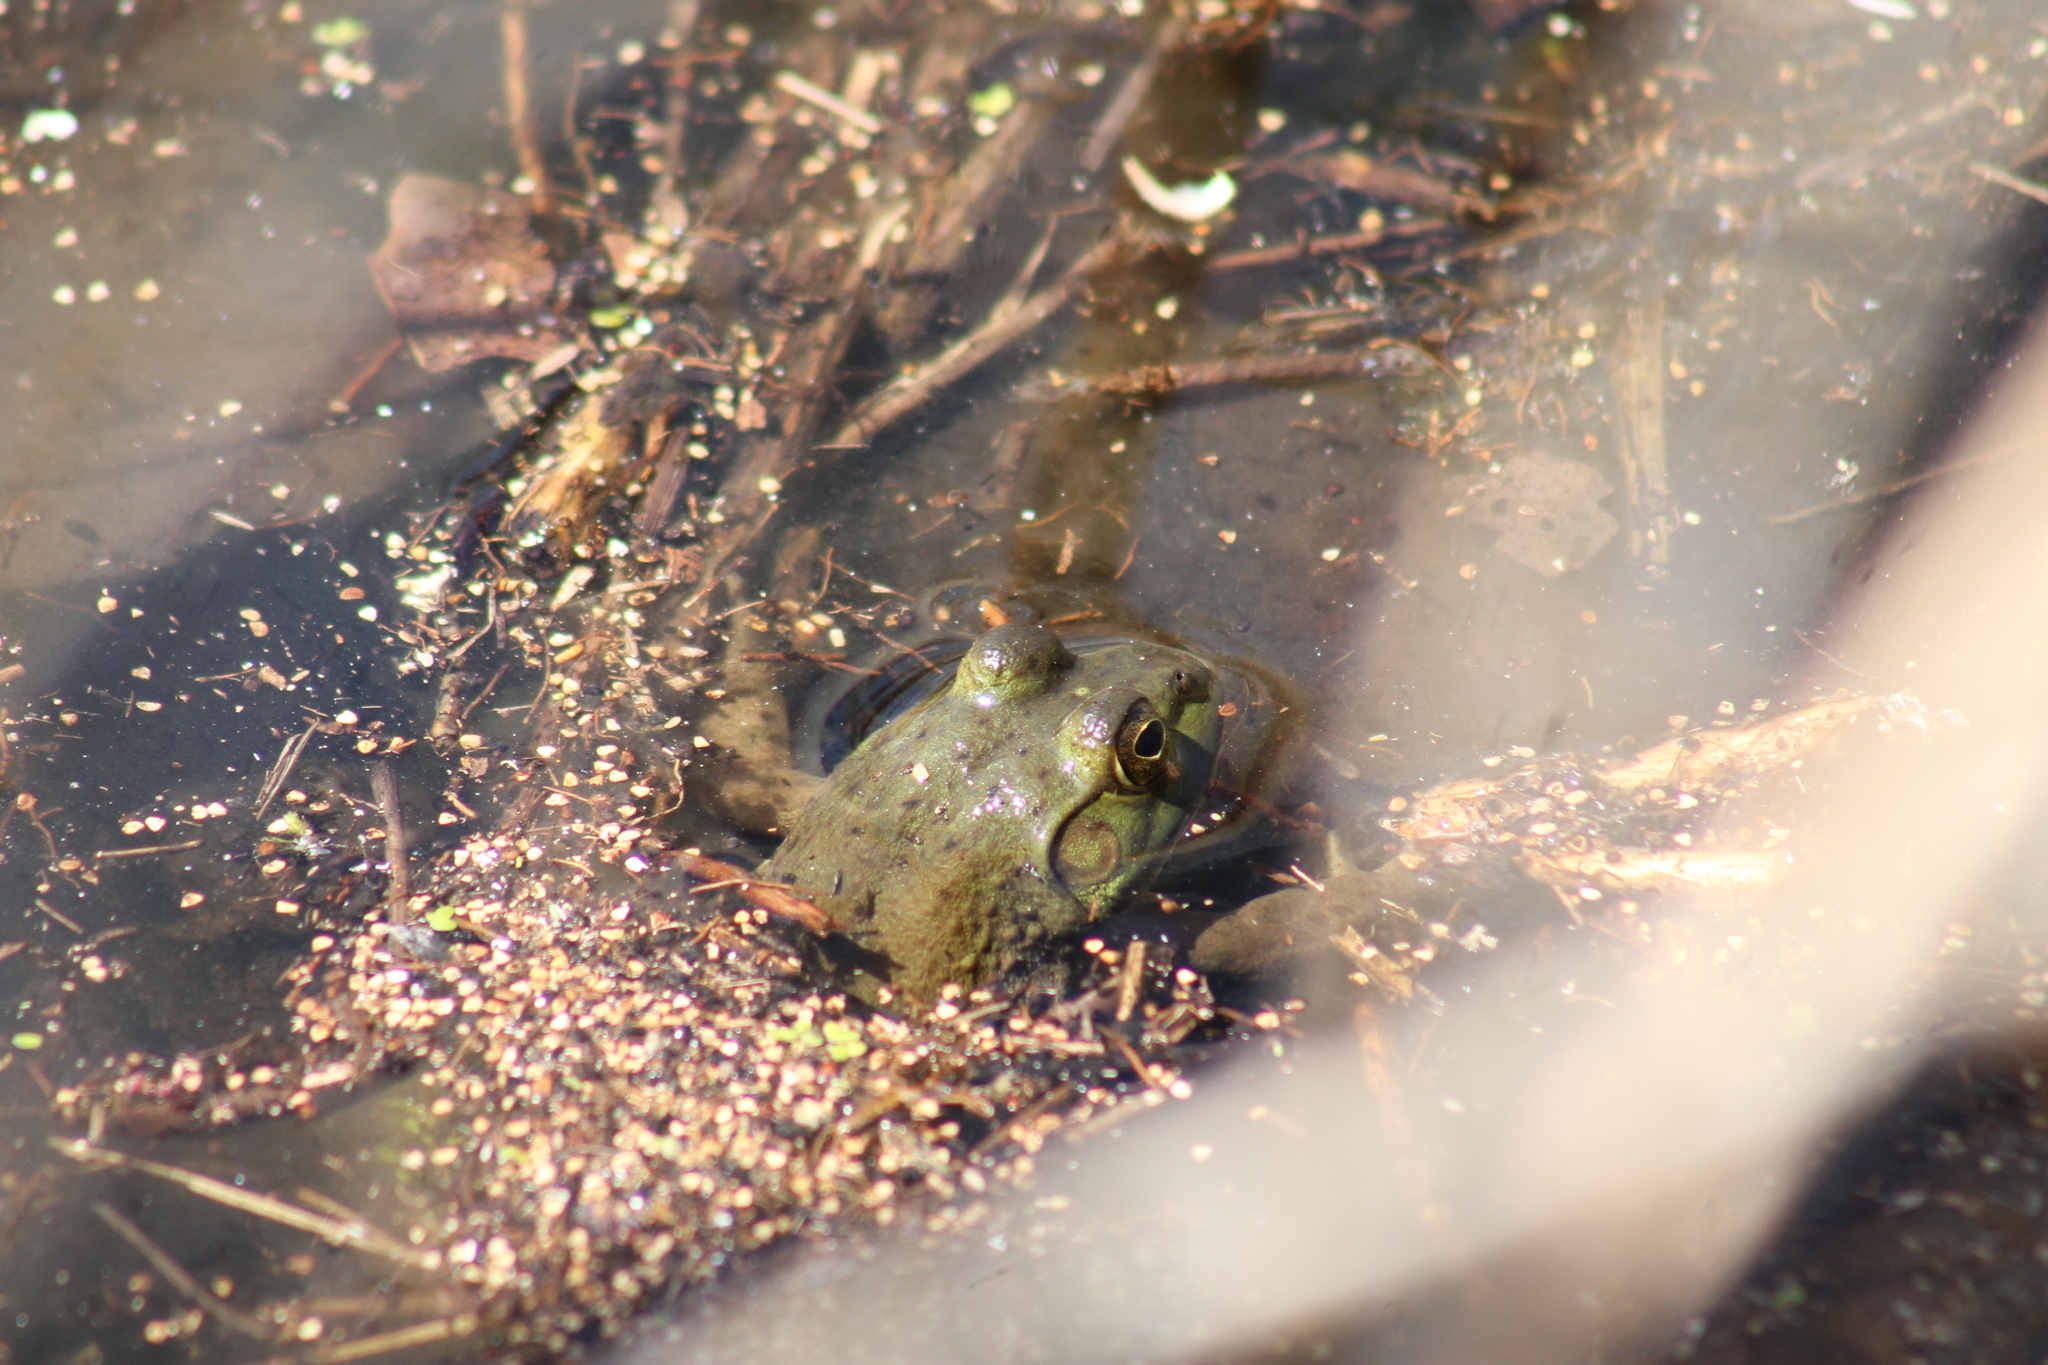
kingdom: Animalia
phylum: Chordata
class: Amphibia
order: Anura
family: Ranidae
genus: Lithobates
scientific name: Lithobates catesbeianus
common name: American bullfrog
